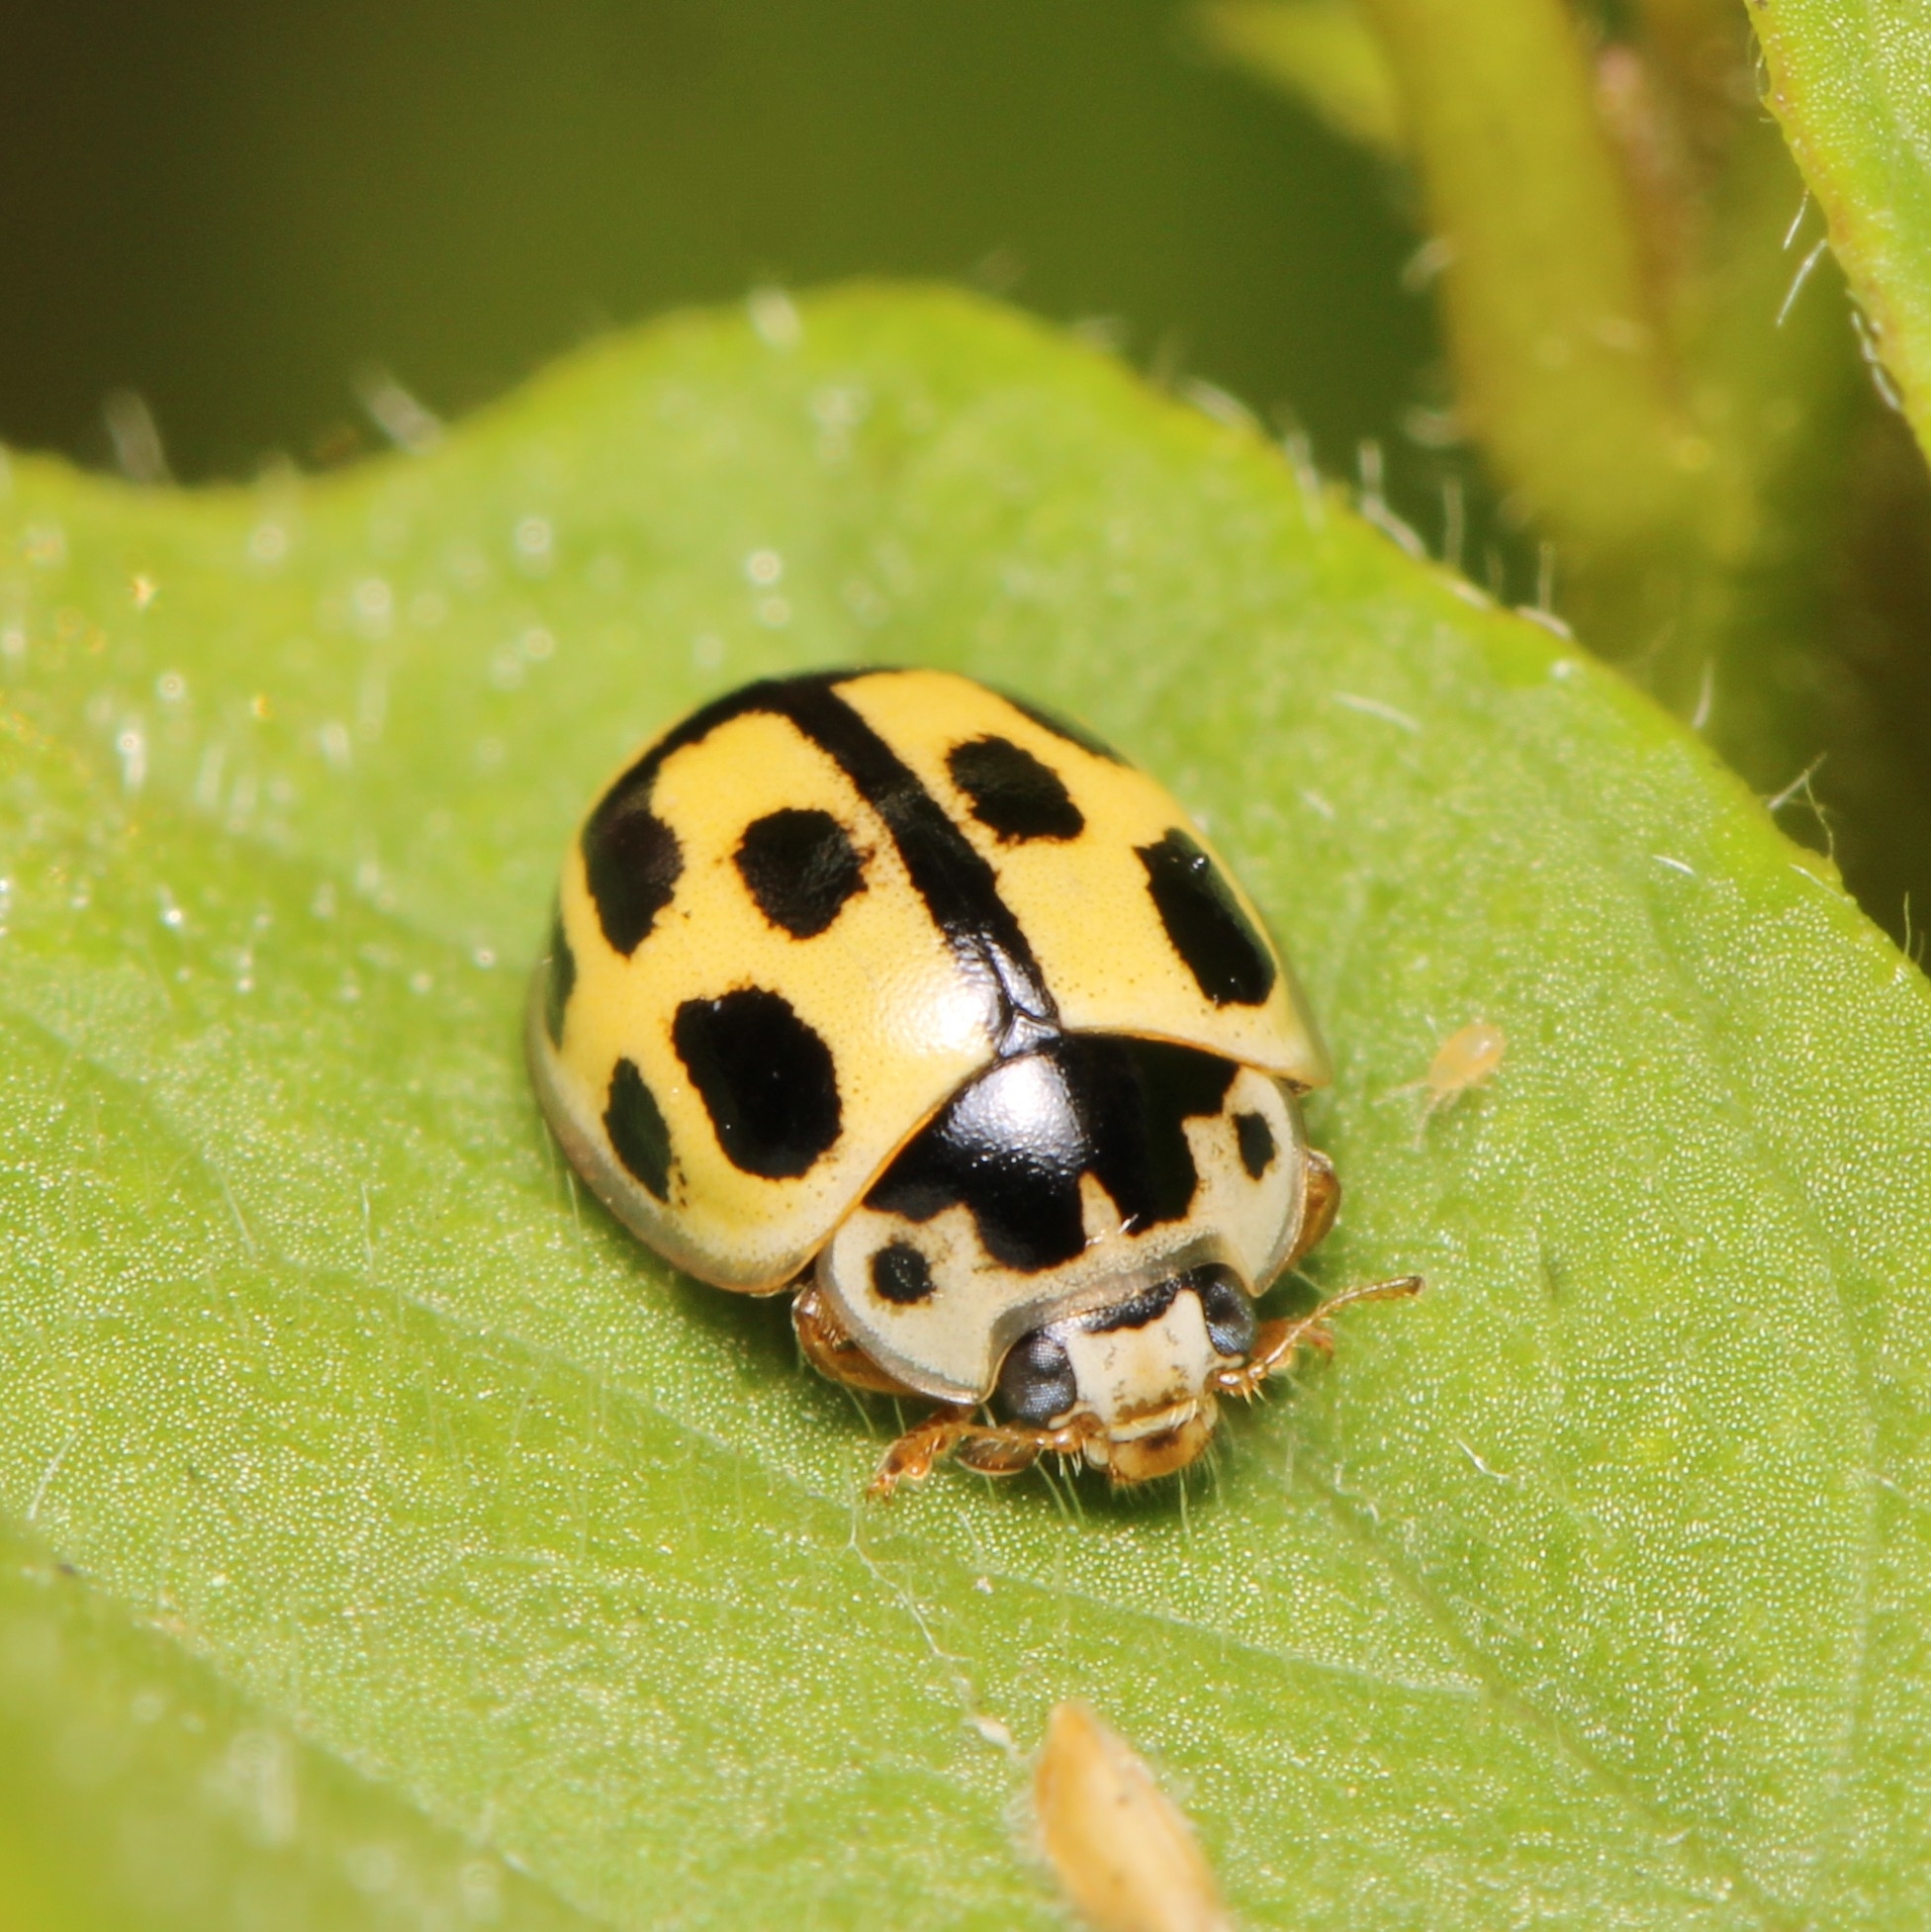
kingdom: Animalia
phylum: Arthropoda
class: Insecta
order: Coleoptera
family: Coccinellidae
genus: Propylaea
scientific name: Propylaea quatuordecimpunctata
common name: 14-spotted ladybird beetle
